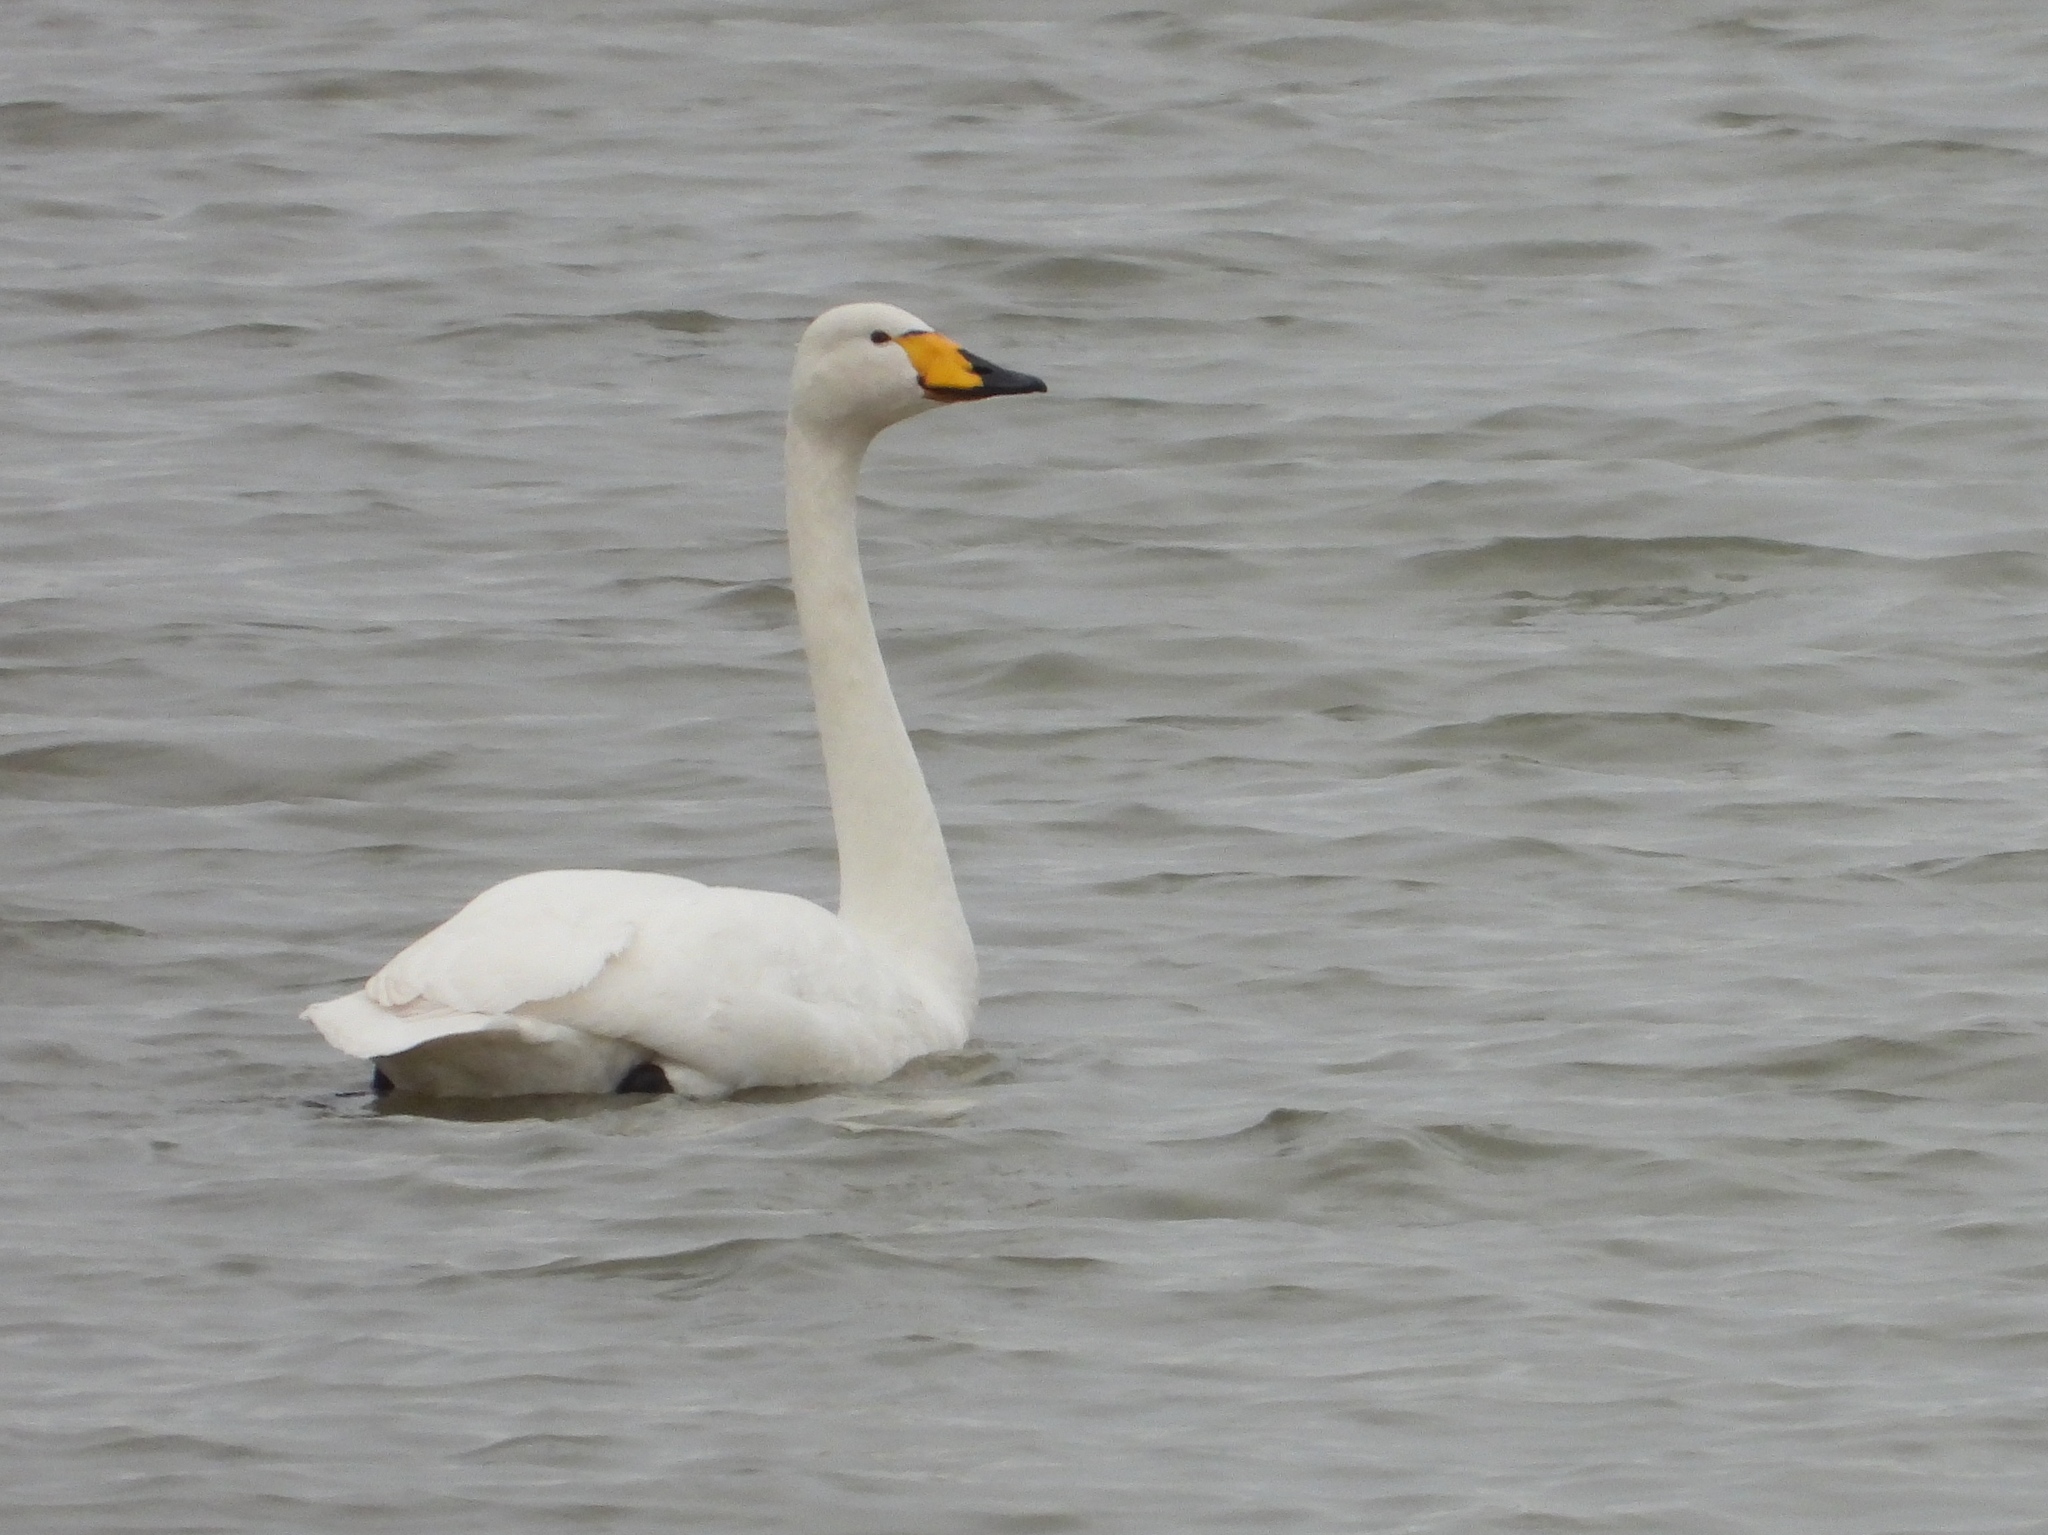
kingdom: Animalia
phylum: Chordata
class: Aves
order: Anseriformes
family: Anatidae
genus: Cygnus
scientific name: Cygnus cygnus
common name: Whooper swan
